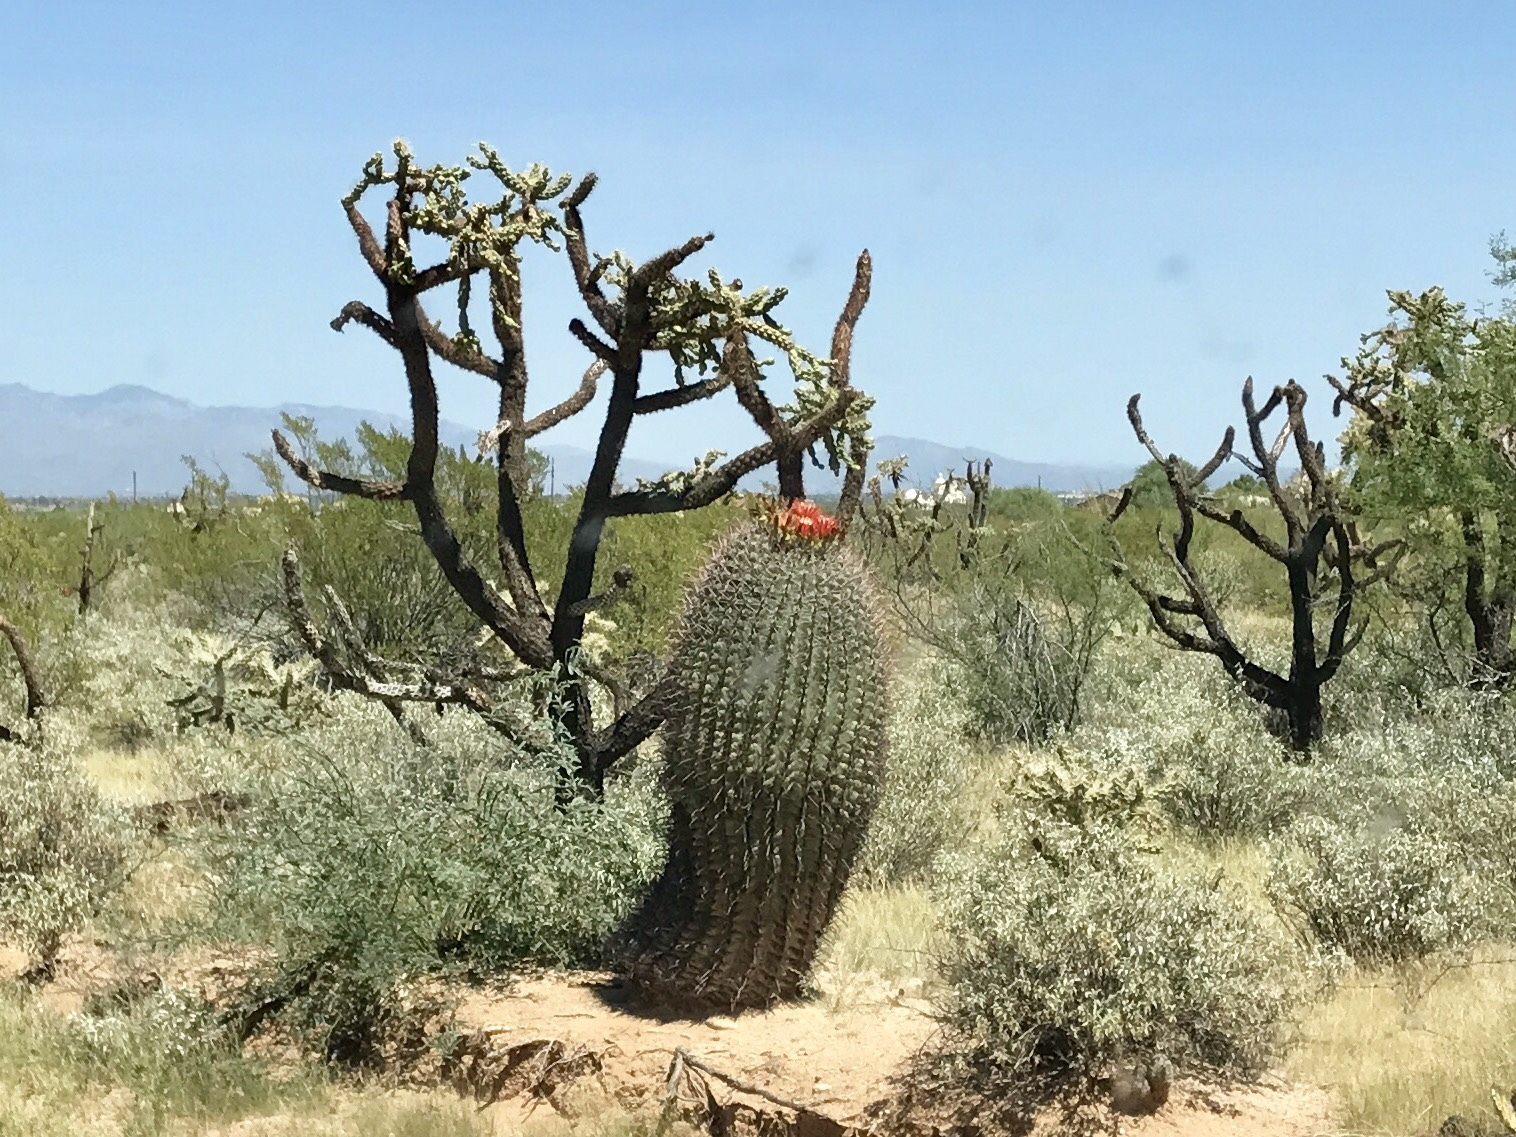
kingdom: Plantae
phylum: Tracheophyta
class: Magnoliopsida
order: Caryophyllales
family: Cactaceae
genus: Ferocactus
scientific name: Ferocactus wislizeni
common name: Candy barrel cactus
